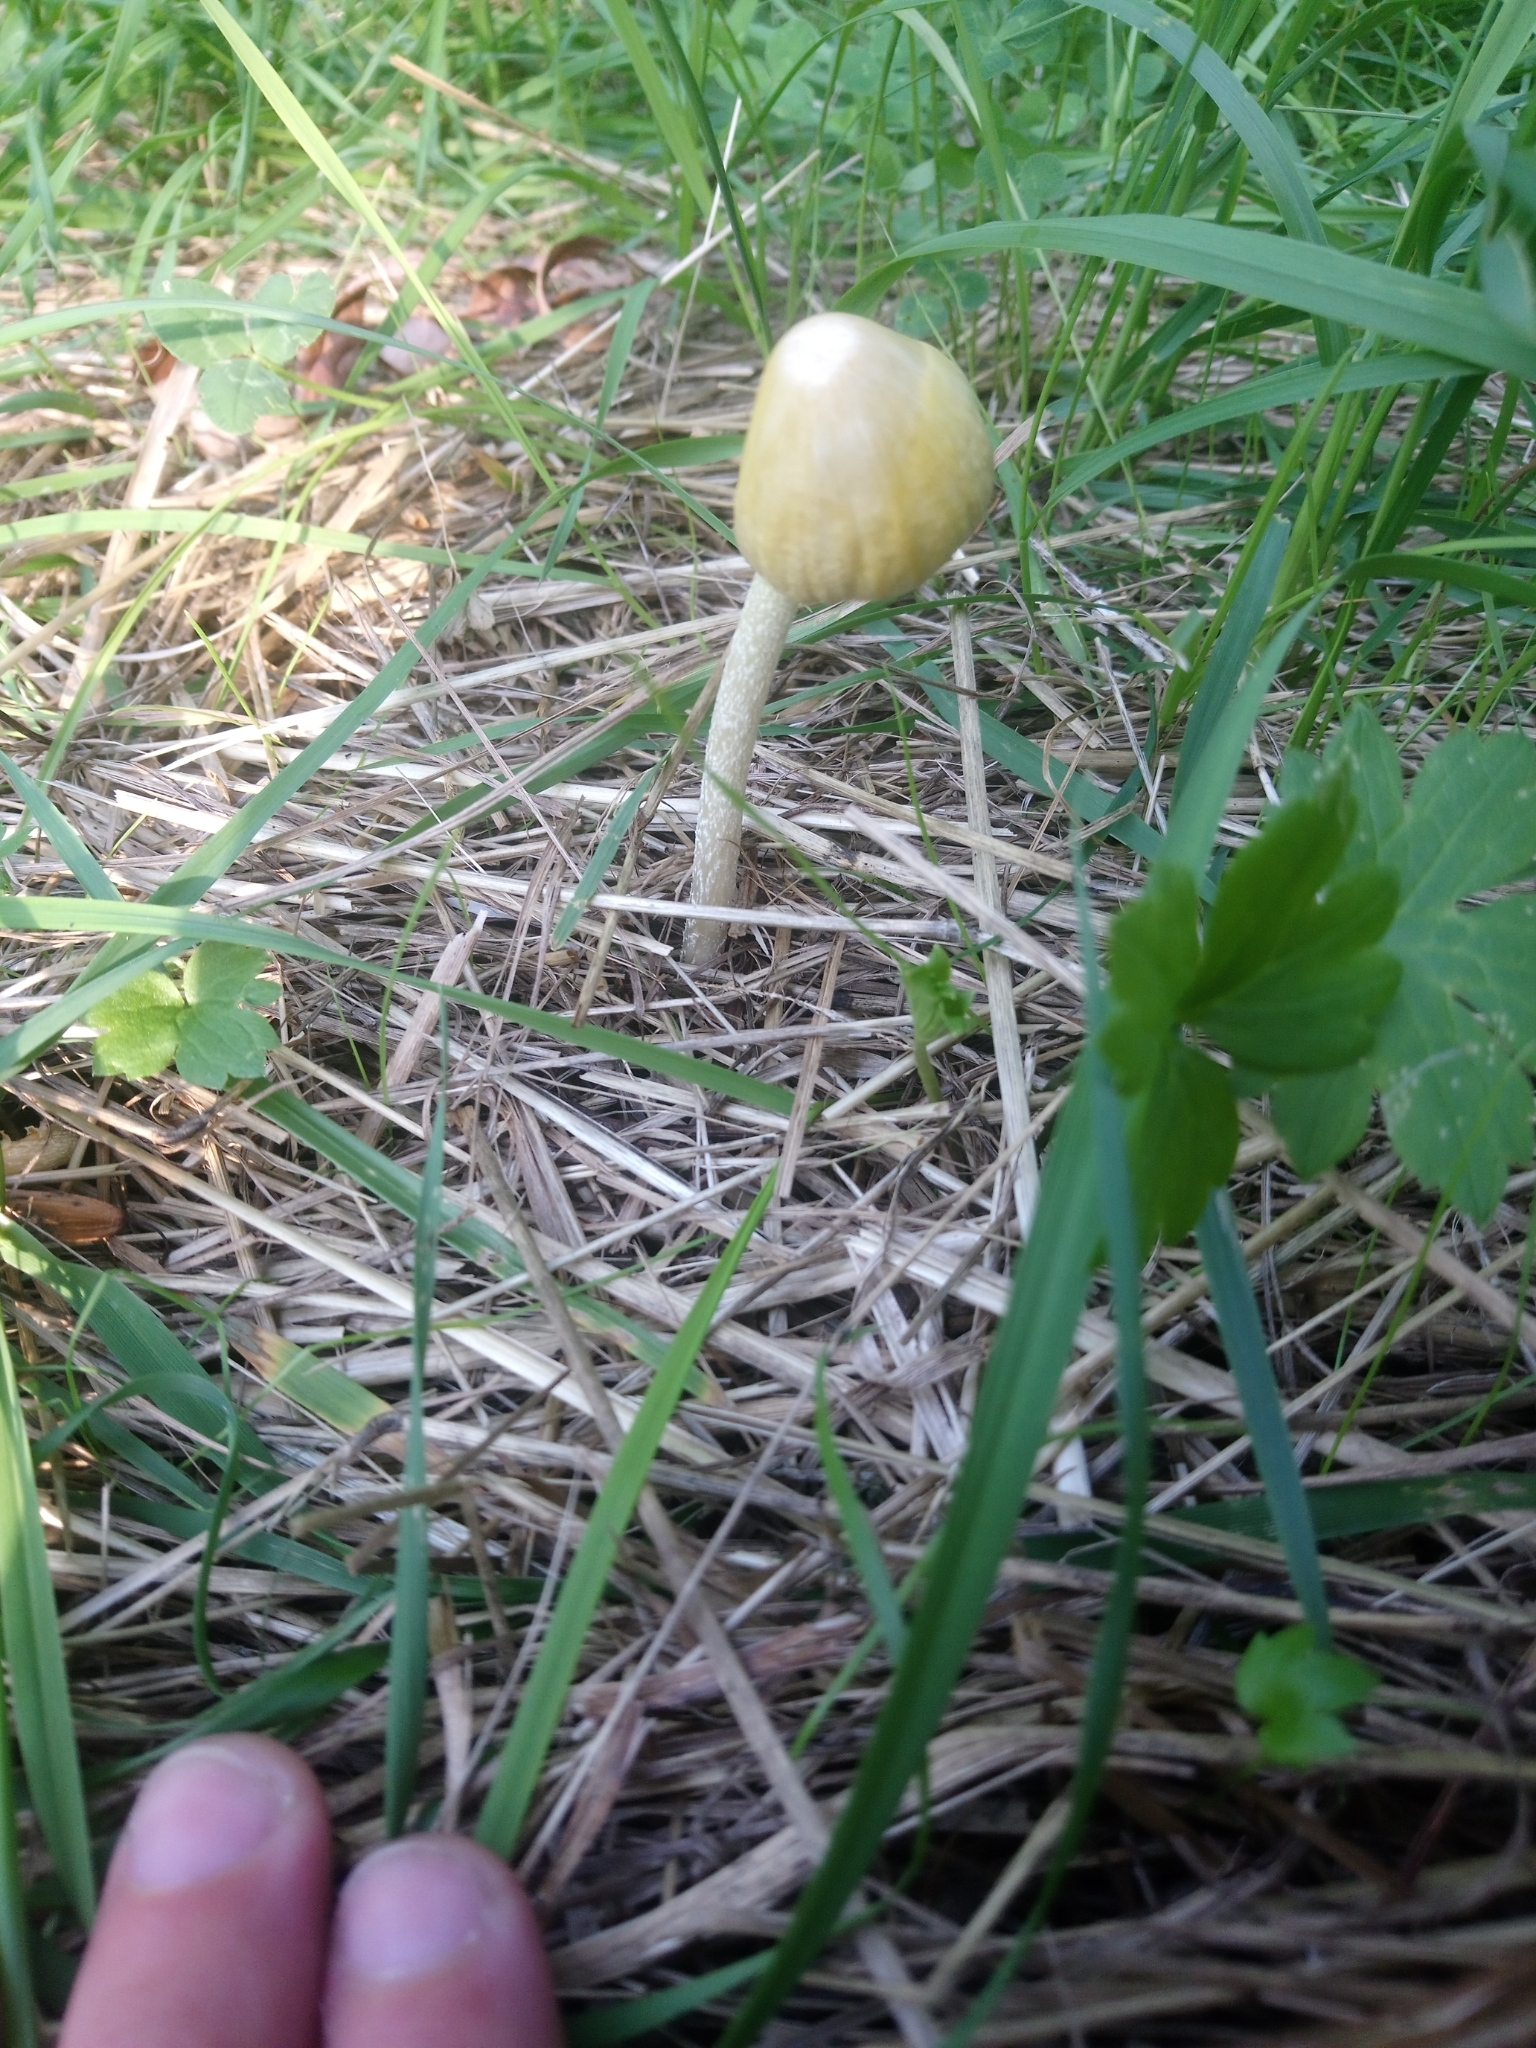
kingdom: Fungi
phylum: Basidiomycota
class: Agaricomycetes
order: Agaricales
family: Bolbitiaceae
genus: Bolbitius
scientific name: Bolbitius titubans
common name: Yellow fieldcap
